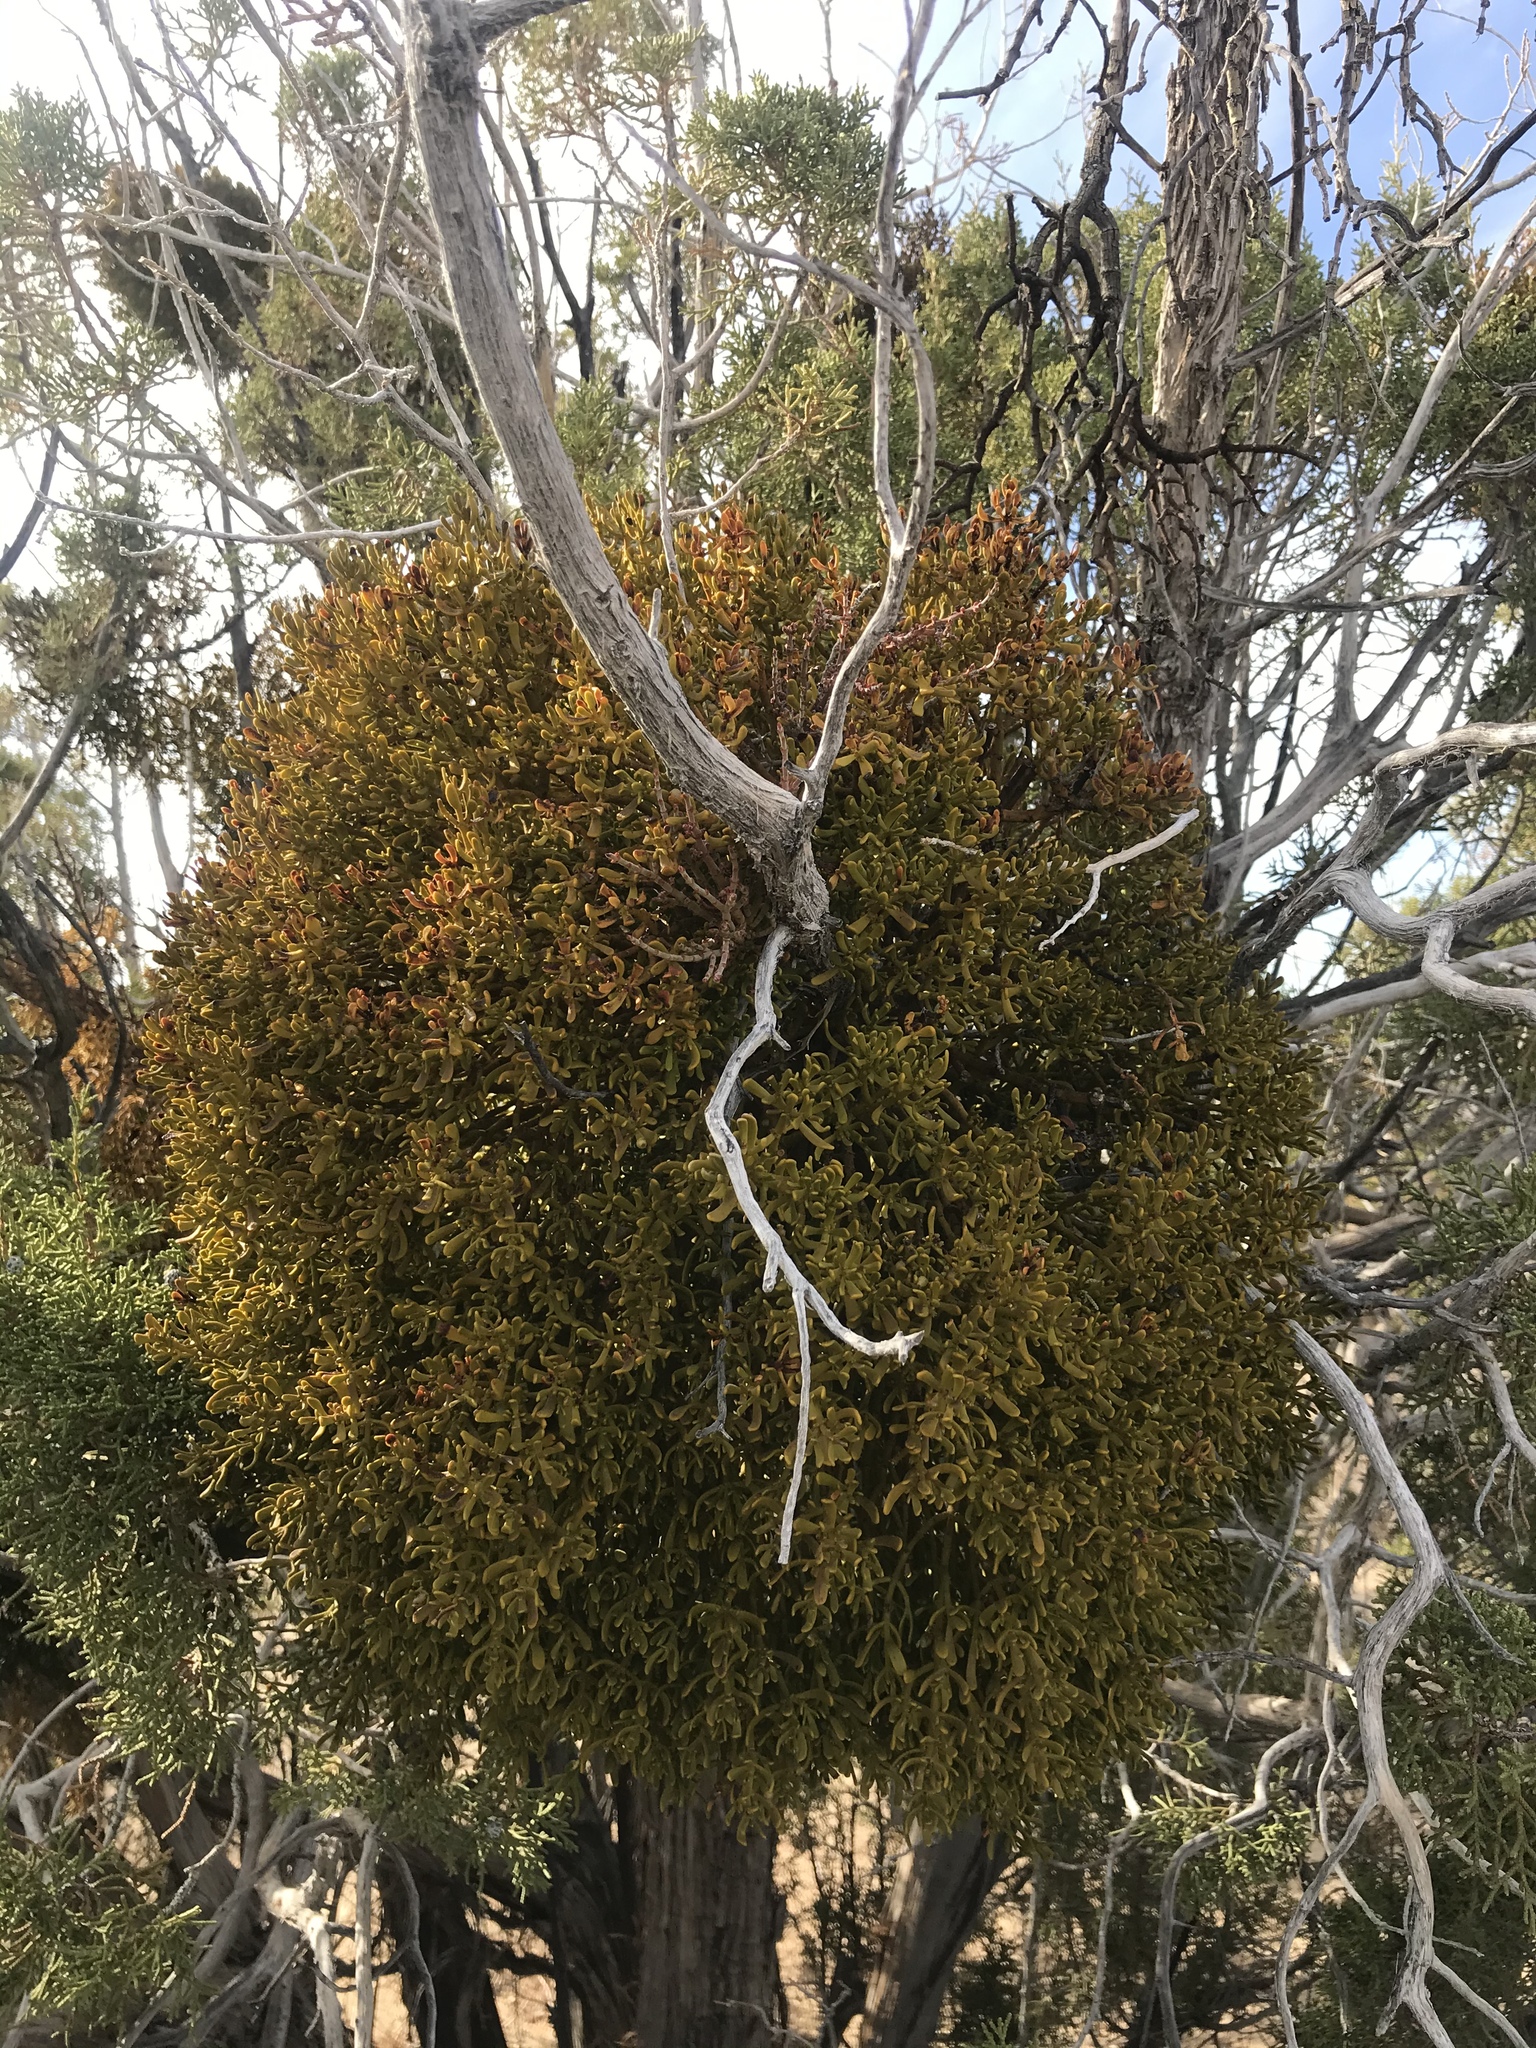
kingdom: Plantae
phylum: Tracheophyta
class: Magnoliopsida
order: Santalales
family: Viscaceae
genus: Phoradendron
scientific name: Phoradendron bolleanum
